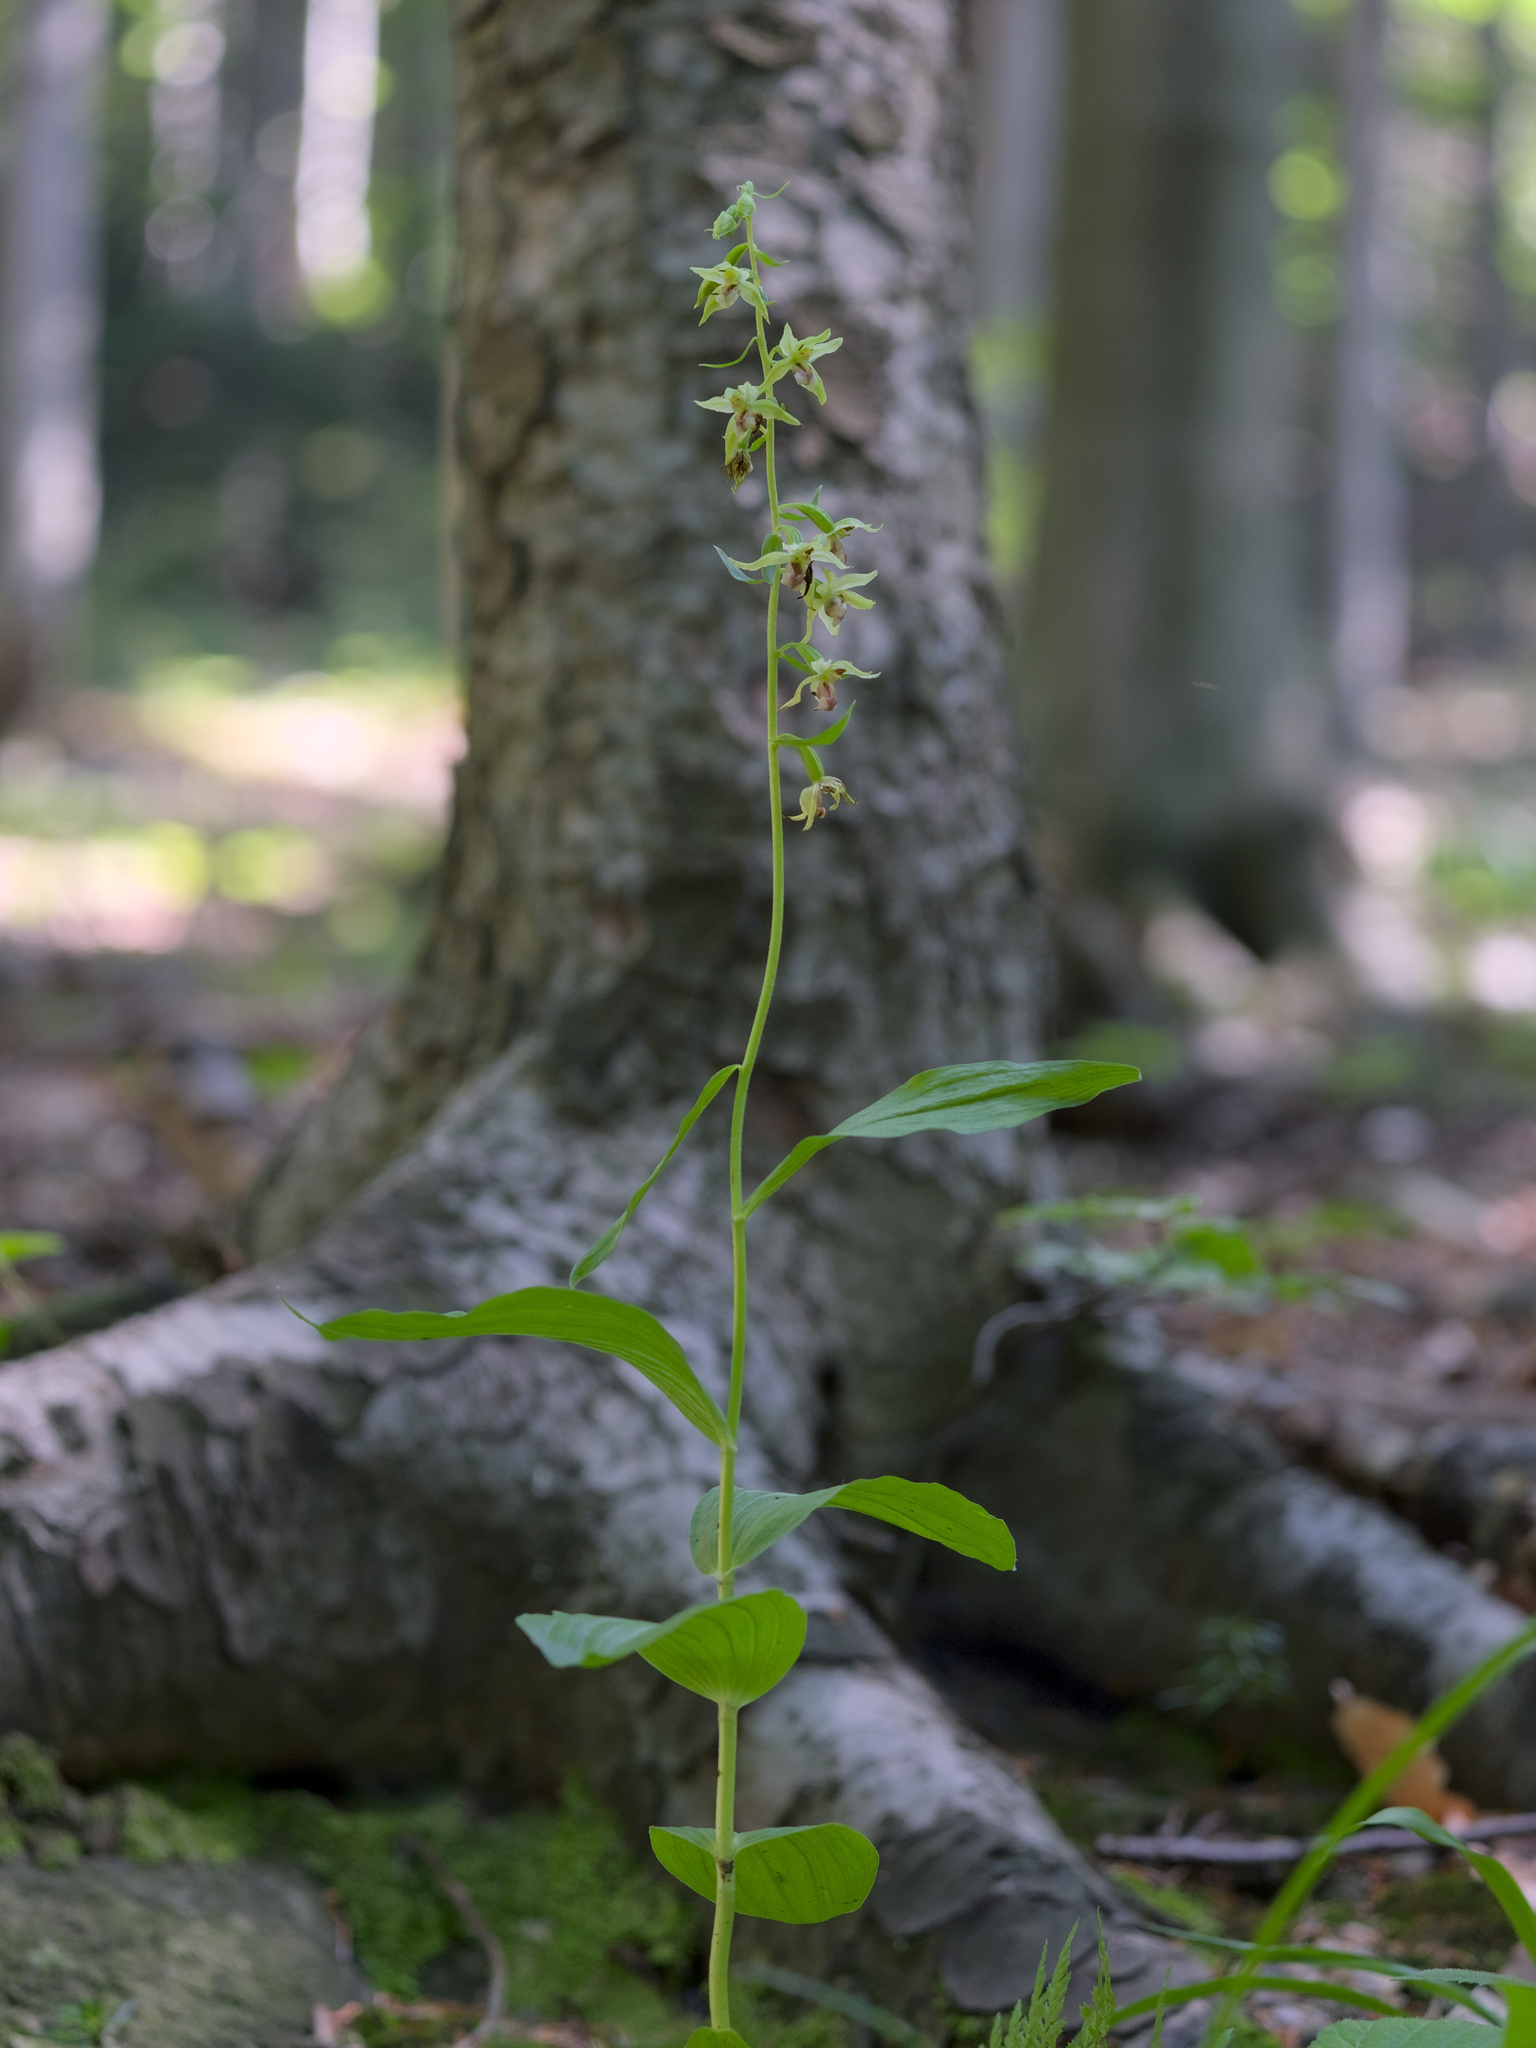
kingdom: Plantae
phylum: Tracheophyta
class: Liliopsida
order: Asparagales
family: Orchidaceae
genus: Epipactis
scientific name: Epipactis helleborine
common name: Broad-leaved helleborine
